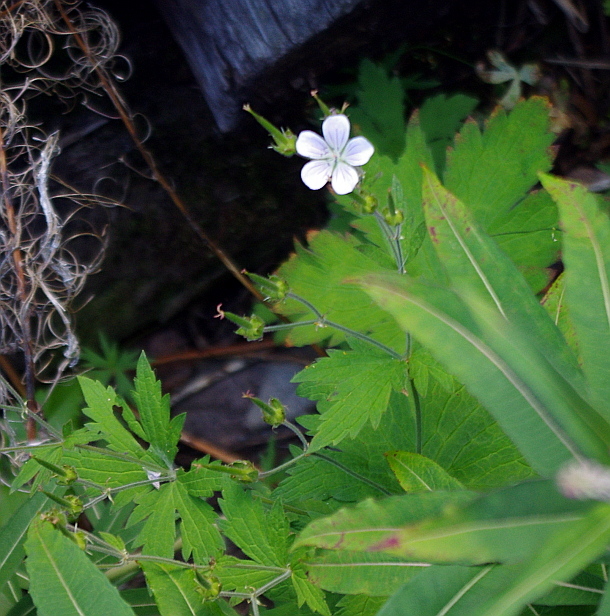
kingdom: Plantae
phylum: Tracheophyta
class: Magnoliopsida
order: Geraniales
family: Geraniaceae
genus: Geranium
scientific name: Geranium sylvaticum
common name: Wood crane's-bill
